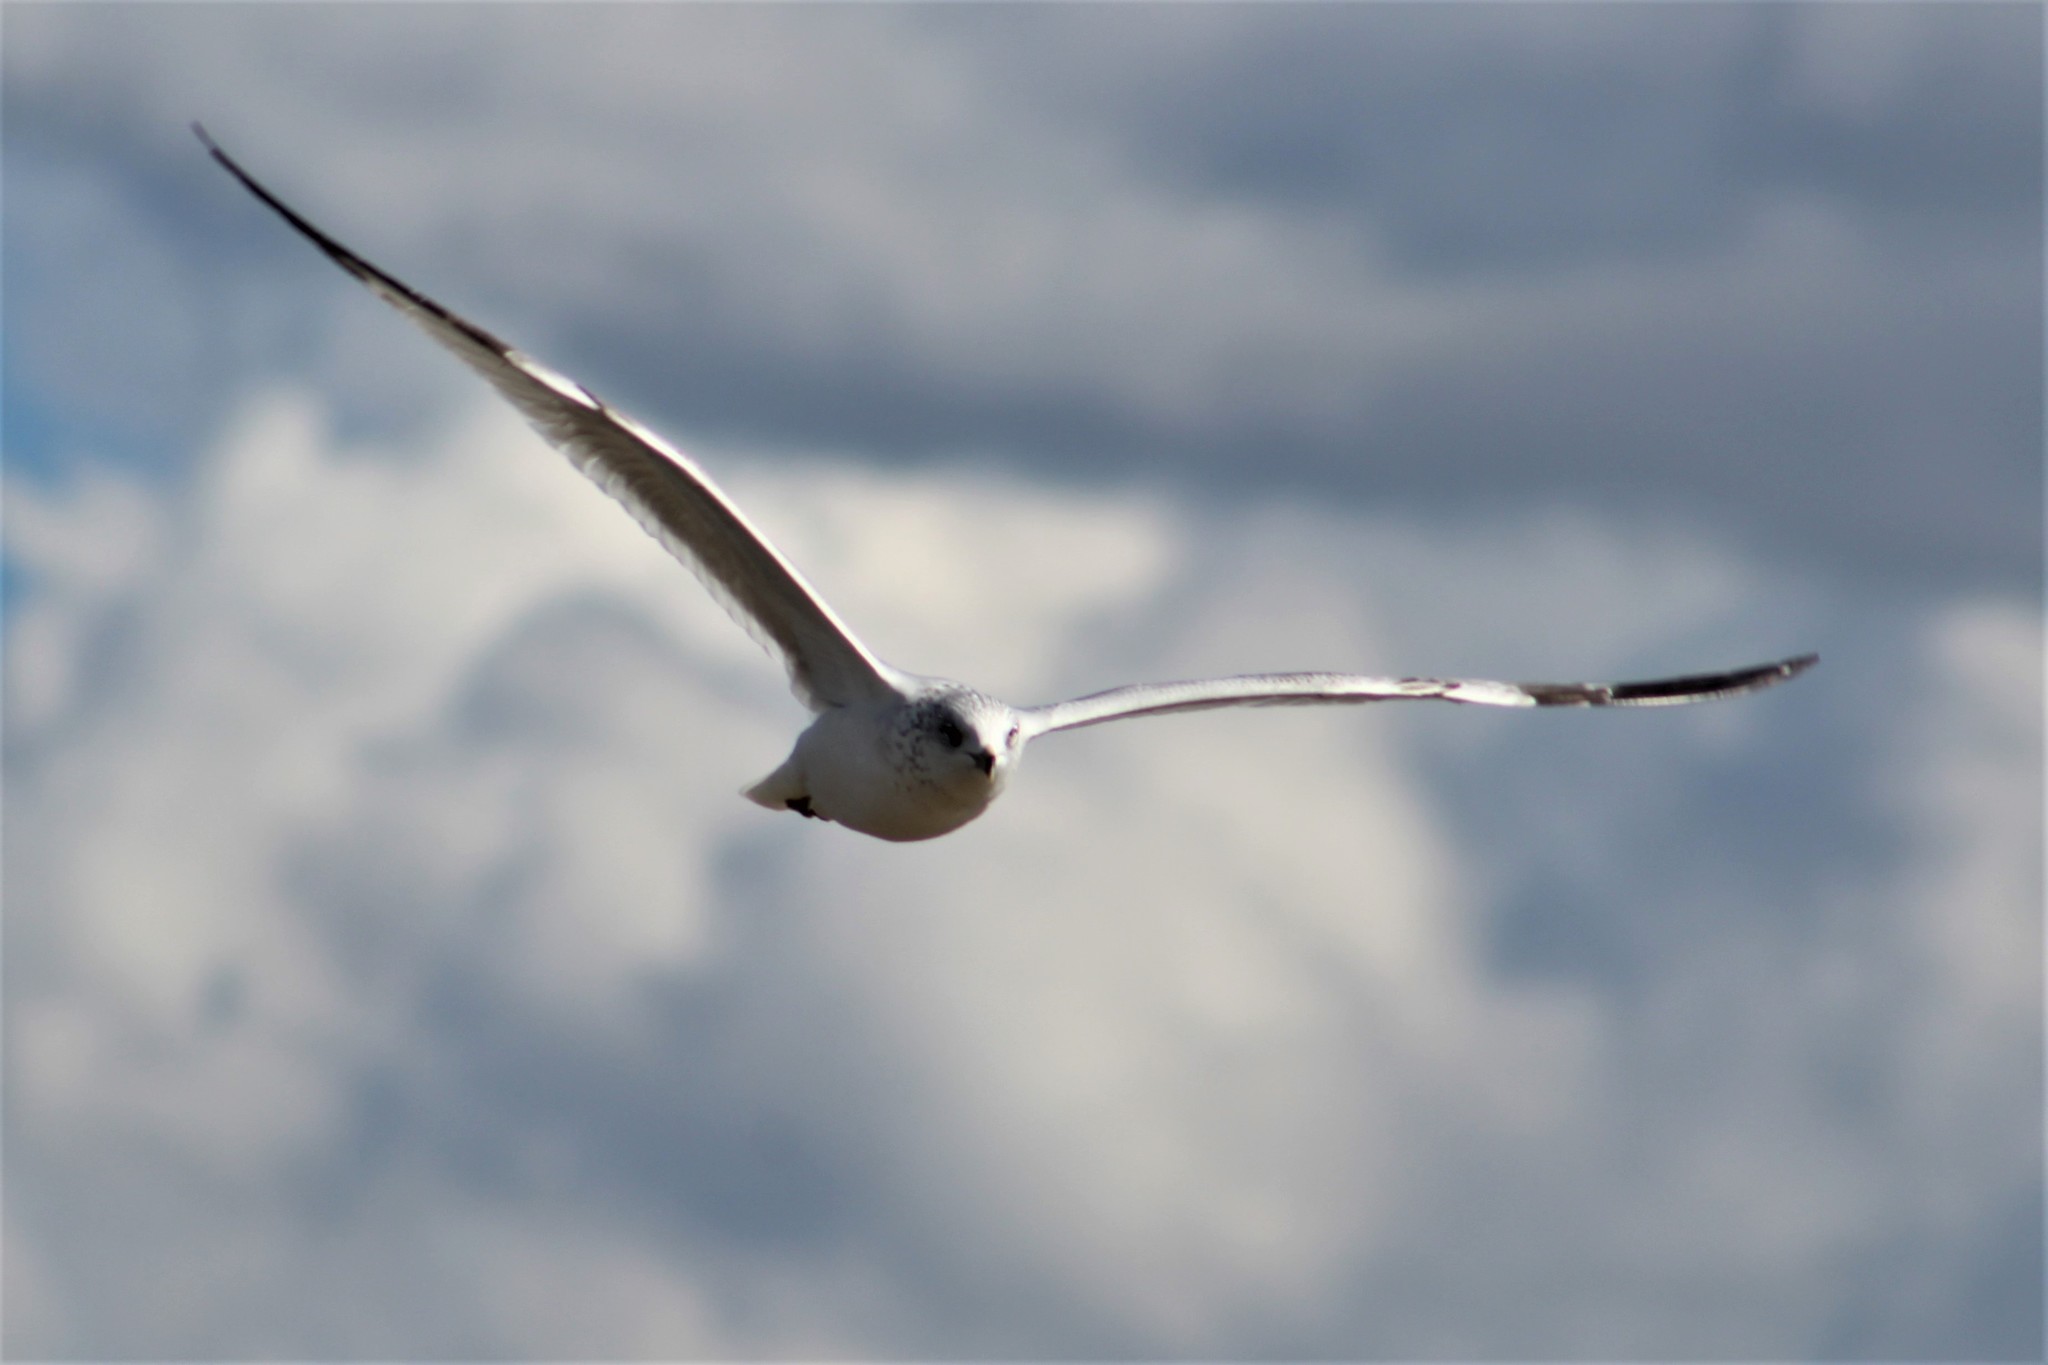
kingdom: Animalia
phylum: Chordata
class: Aves
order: Charadriiformes
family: Laridae
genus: Larus
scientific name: Larus delawarensis
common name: Ring-billed gull
